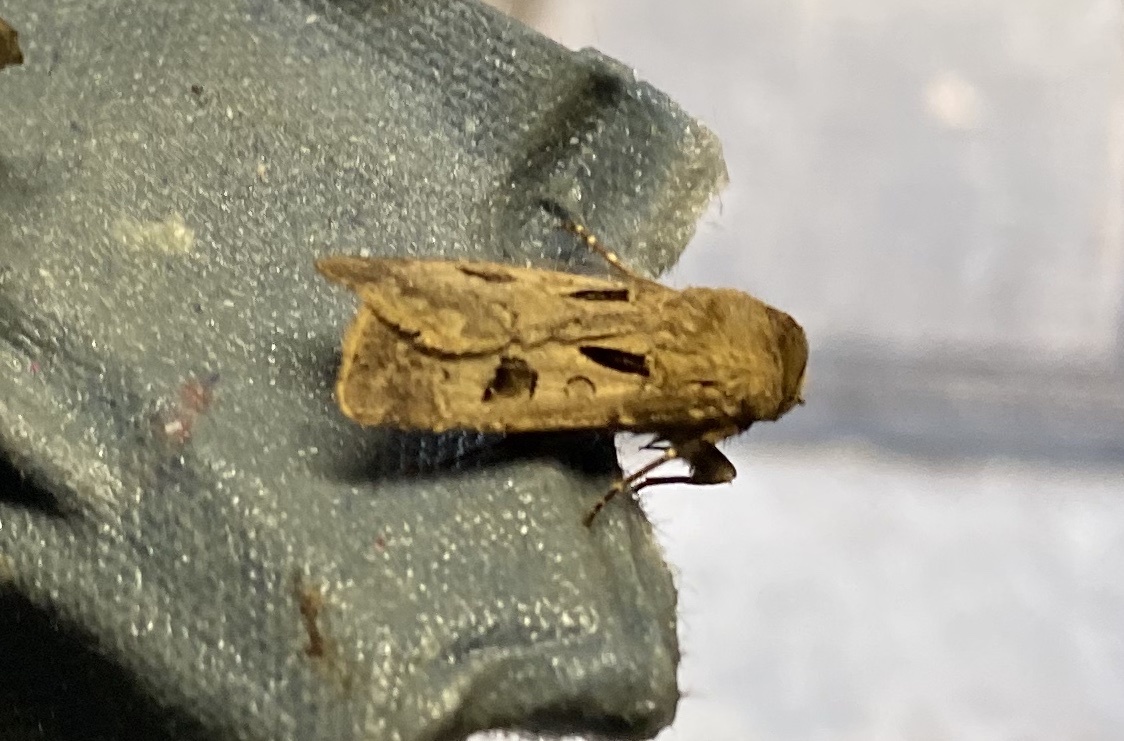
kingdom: Animalia
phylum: Arthropoda
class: Insecta
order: Lepidoptera
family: Noctuidae
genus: Agrotis
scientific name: Agrotis exclamationis
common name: Heart and dart
